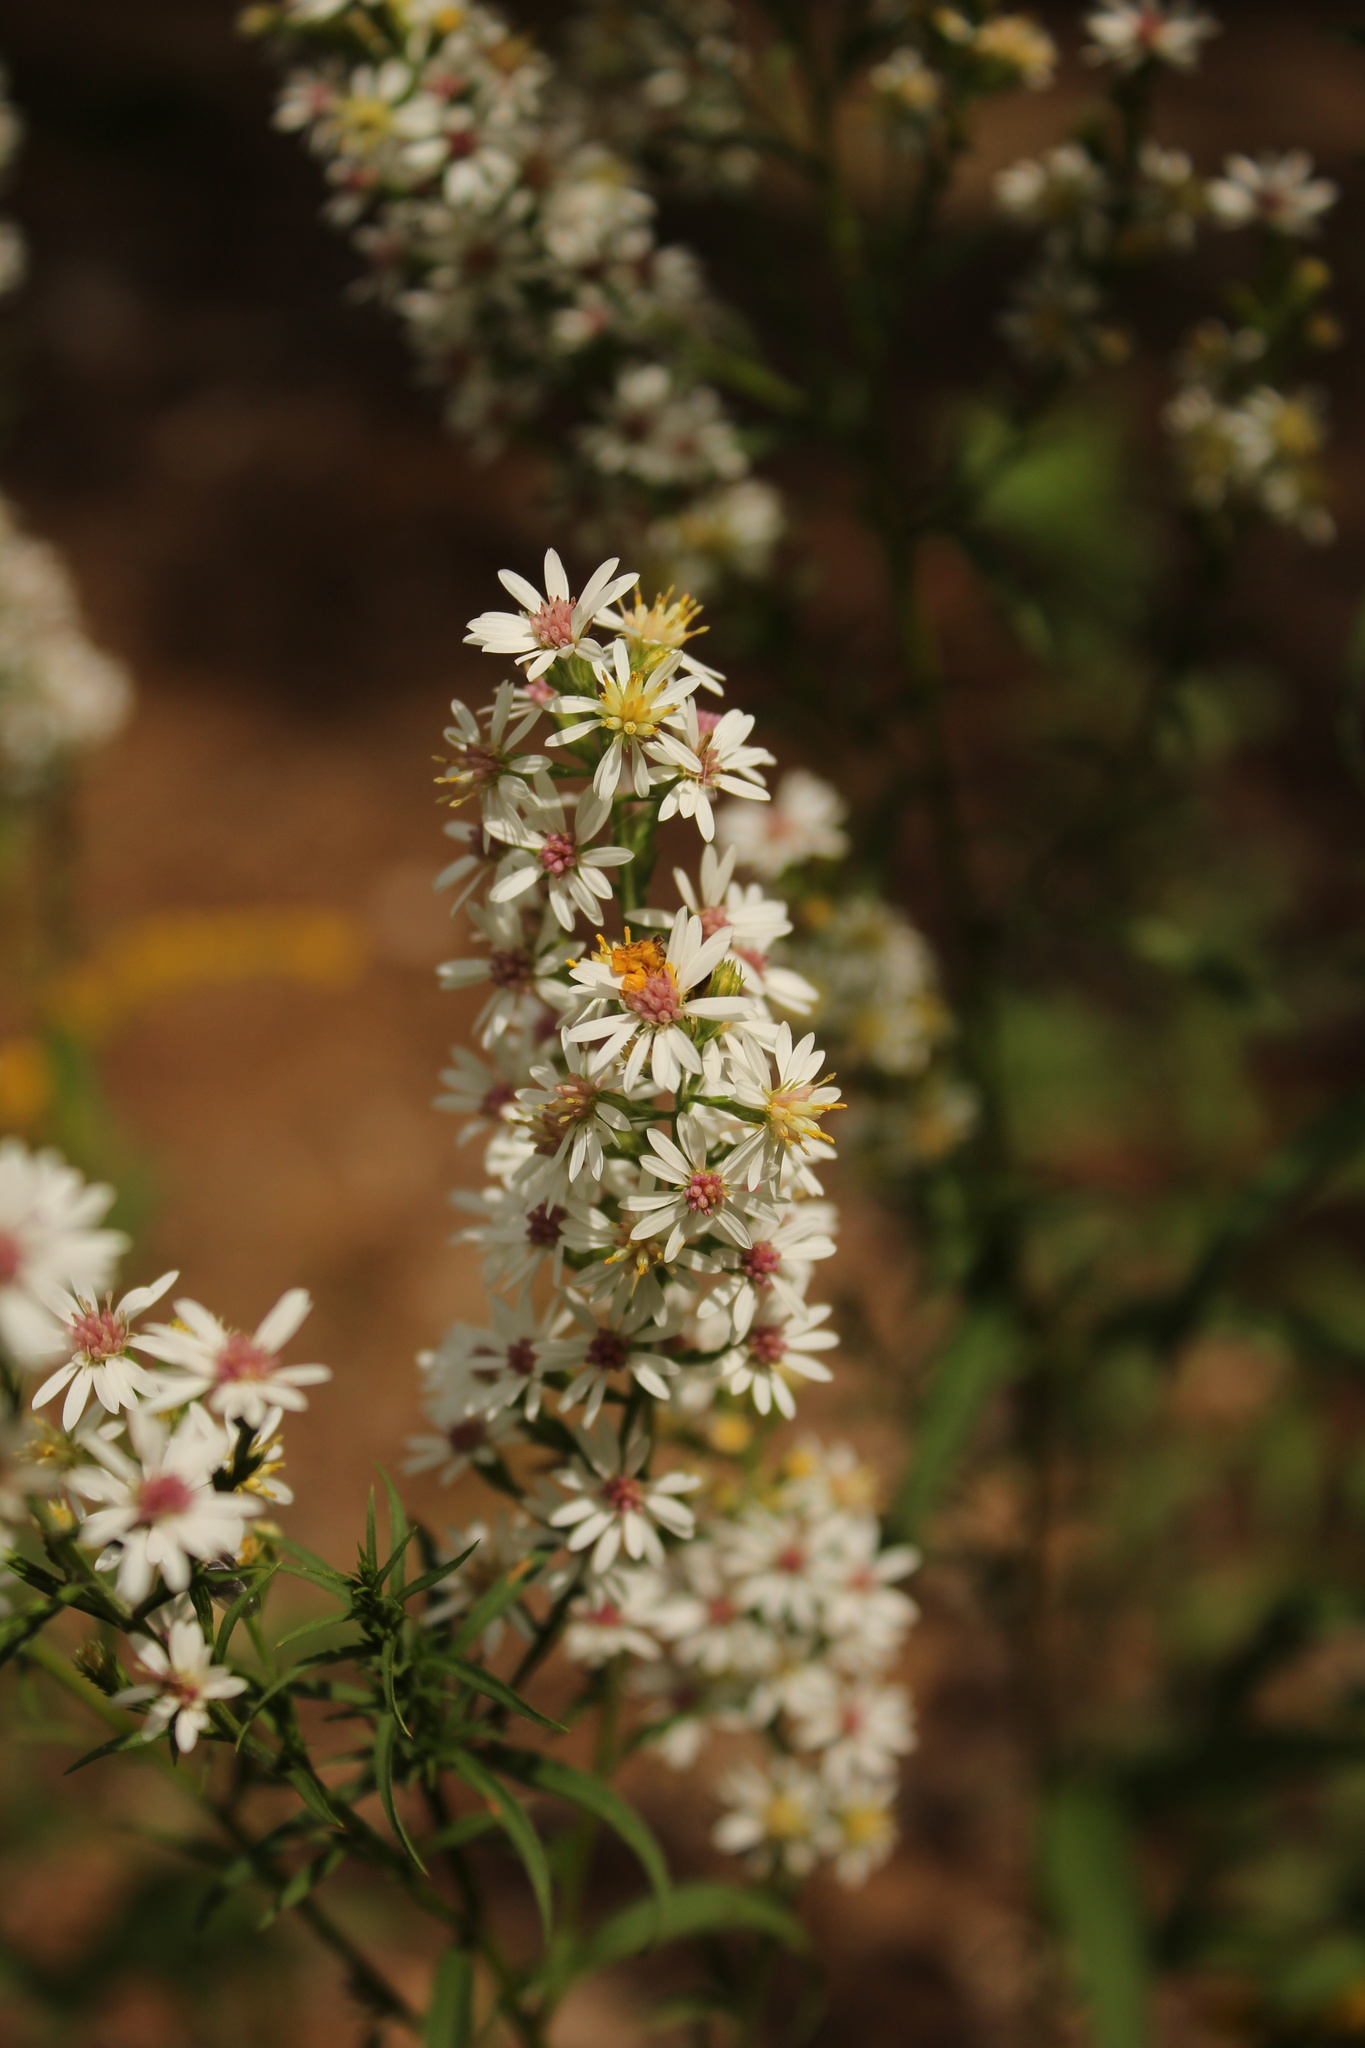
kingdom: Plantae
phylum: Tracheophyta
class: Magnoliopsida
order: Asterales
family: Asteraceae
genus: Symphyotrichum
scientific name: Symphyotrichum urophyllum
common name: Arrow-leaved aster
